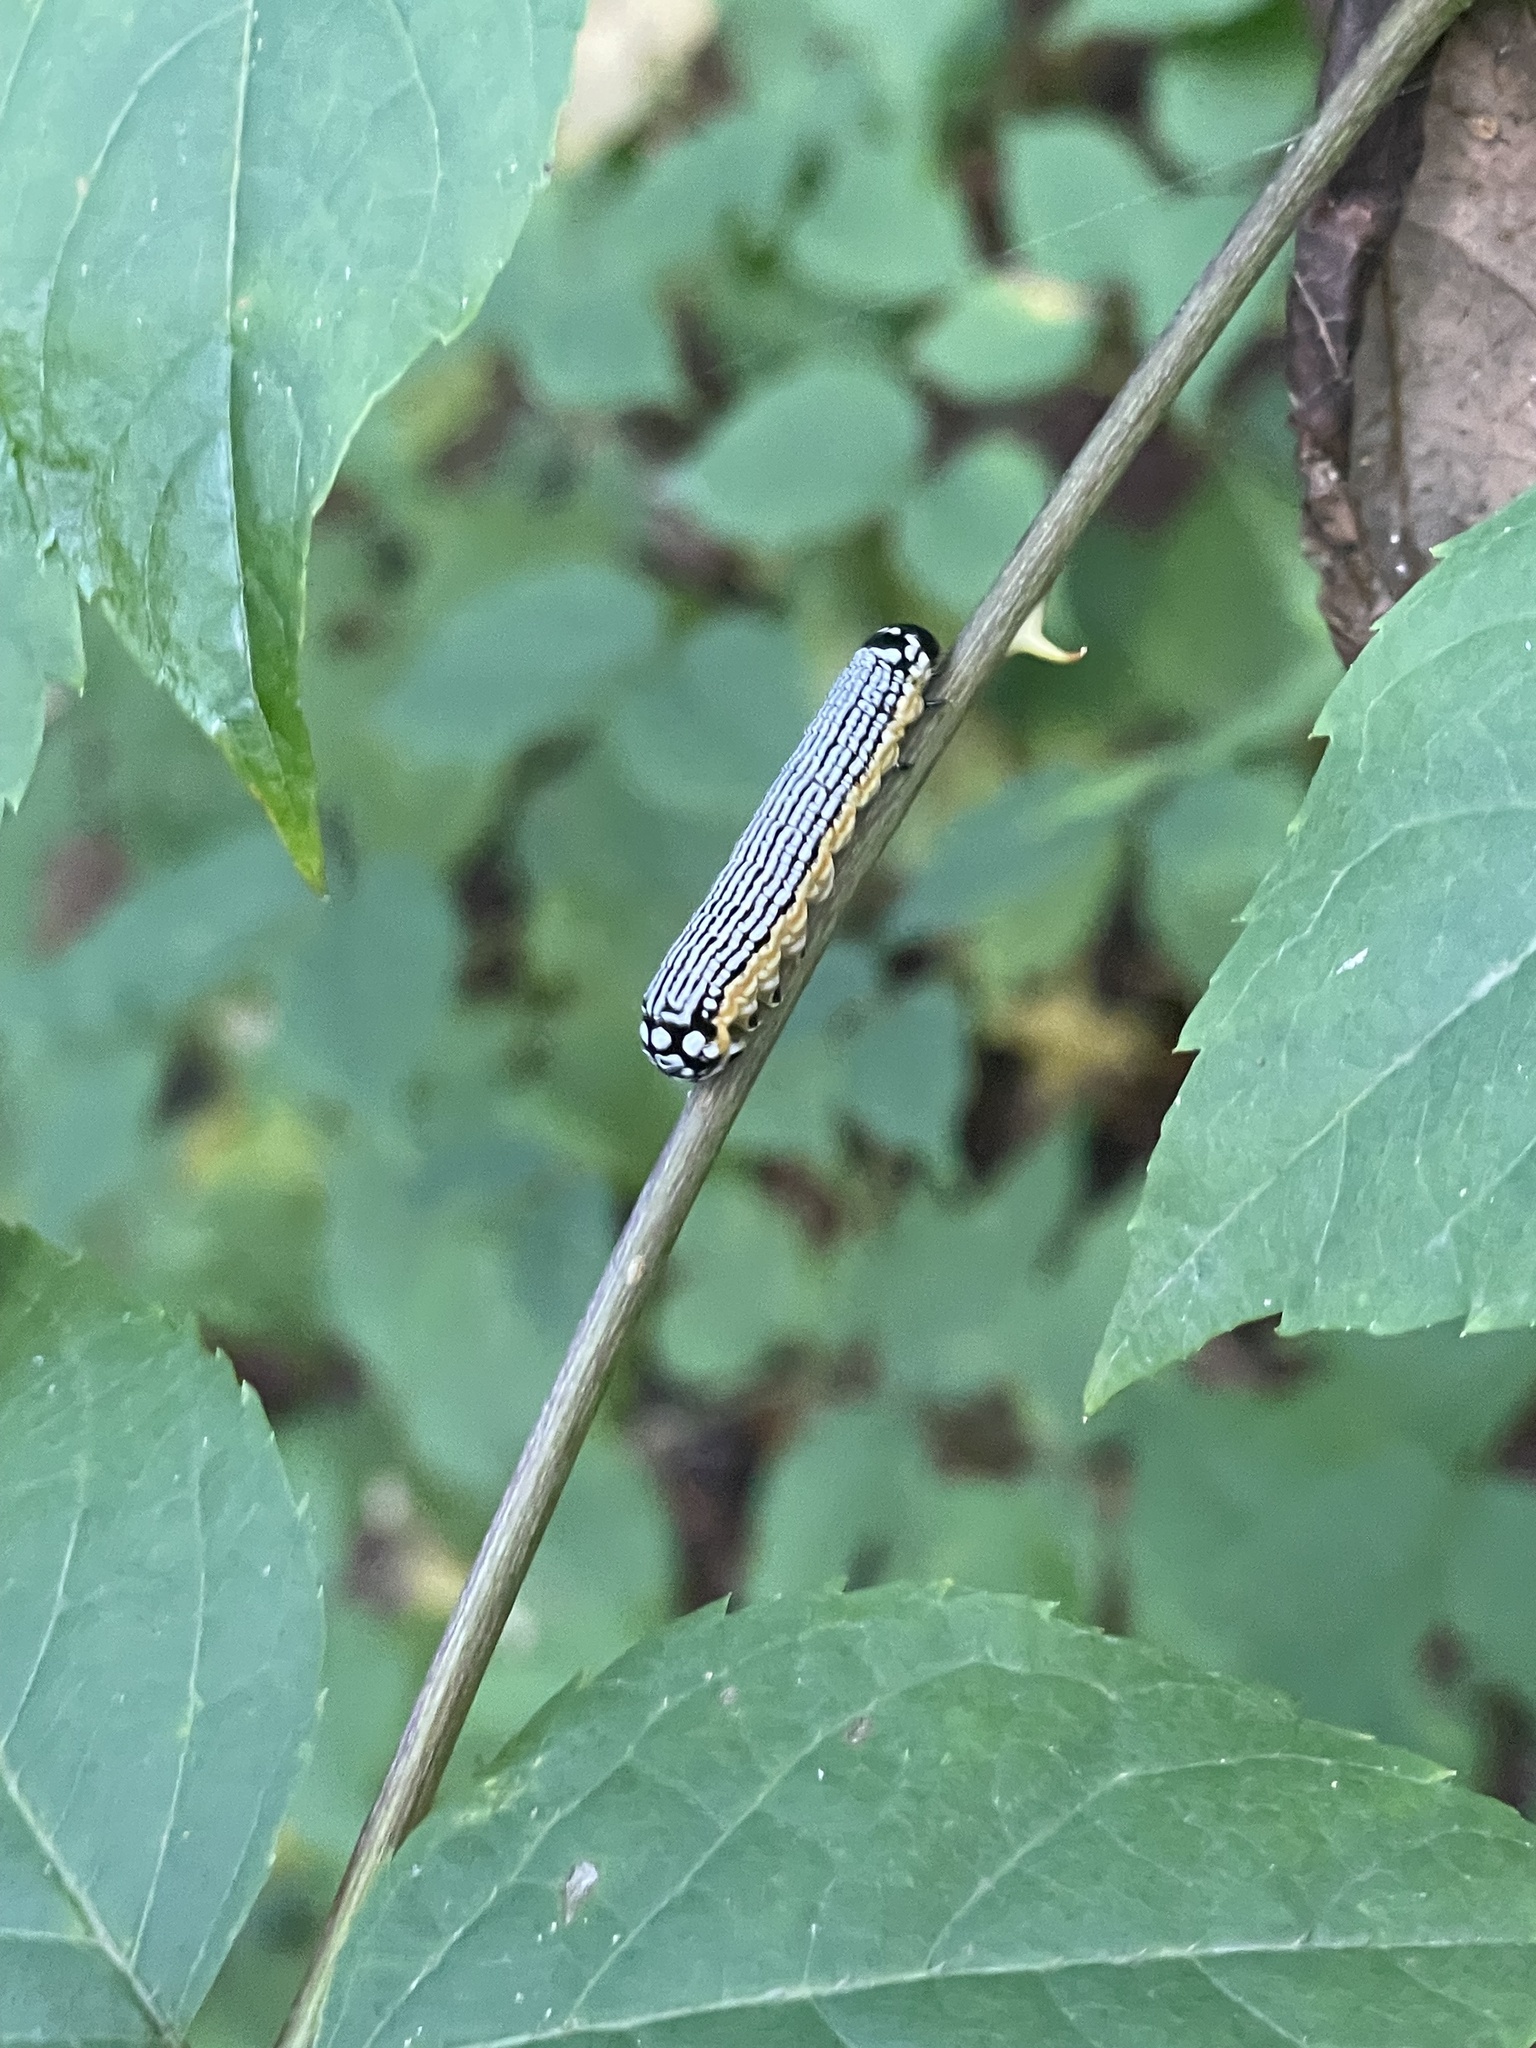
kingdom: Animalia
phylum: Arthropoda
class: Insecta
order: Lepidoptera
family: Noctuidae
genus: Phosphila
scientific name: Phosphila turbulenta
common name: Turbulent phosphila moth
